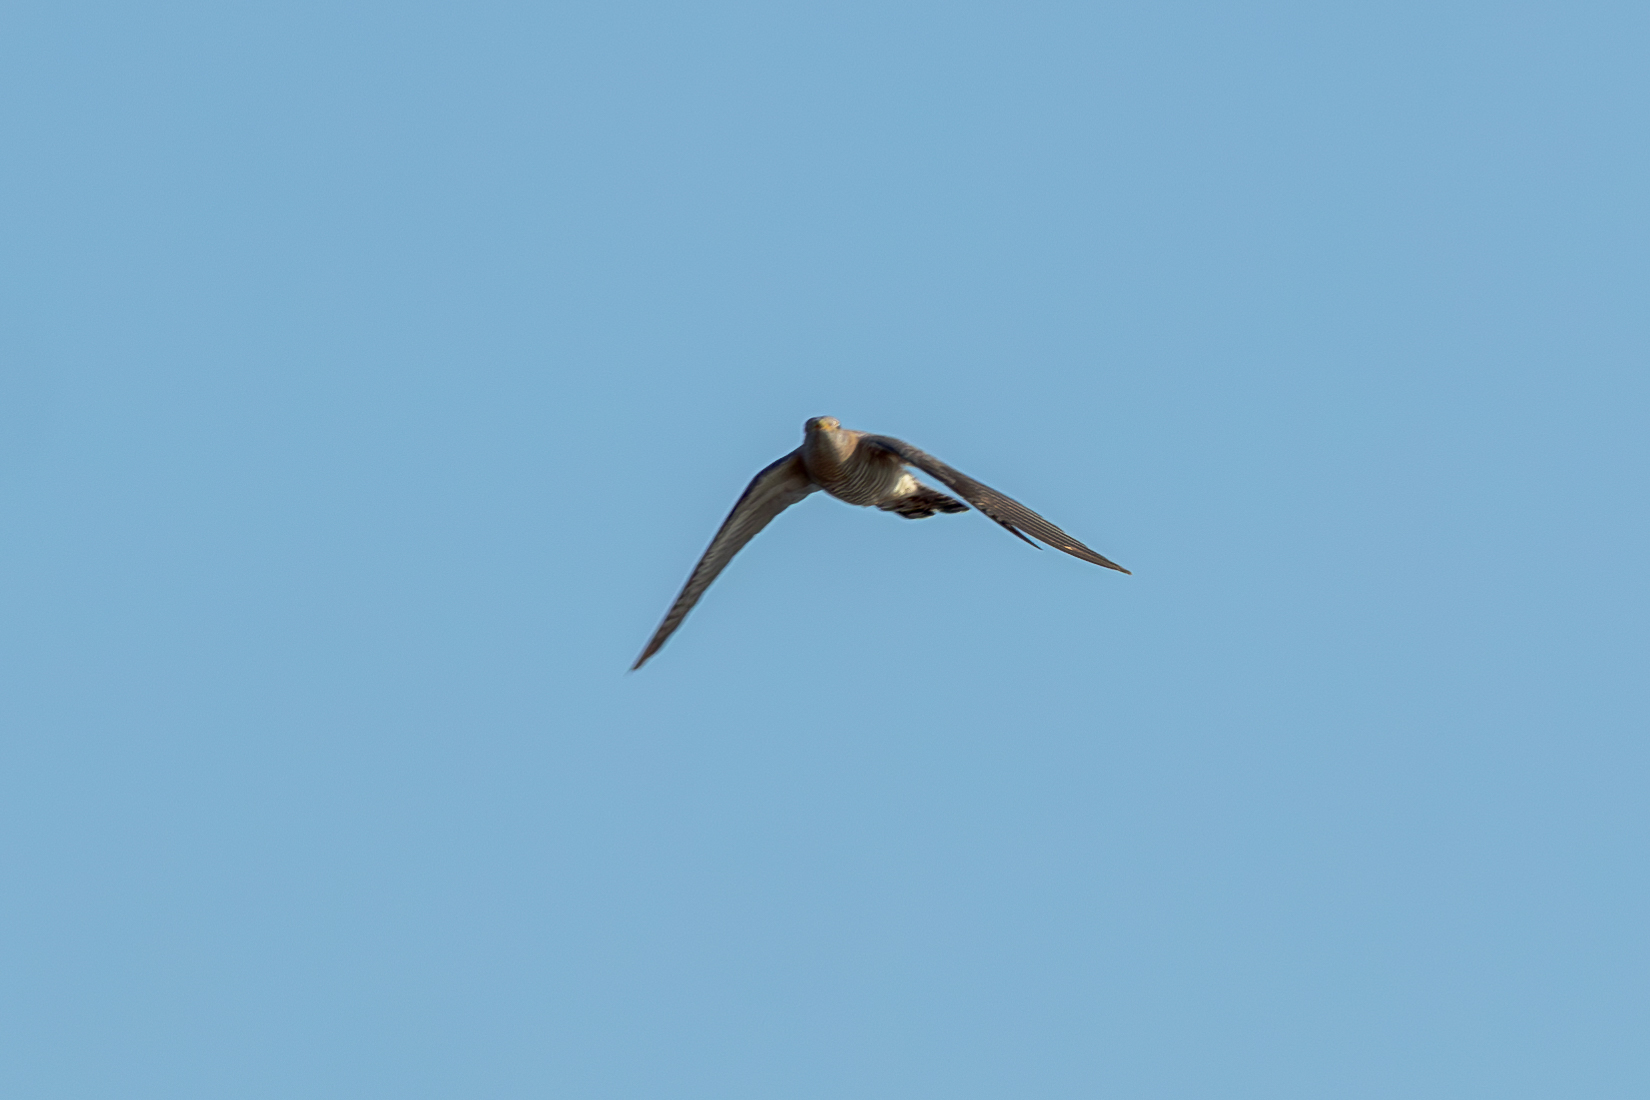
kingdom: Animalia
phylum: Chordata
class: Aves
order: Cuculiformes
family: Cuculidae
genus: Cuculus
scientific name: Cuculus canorus
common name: Common cuckoo
